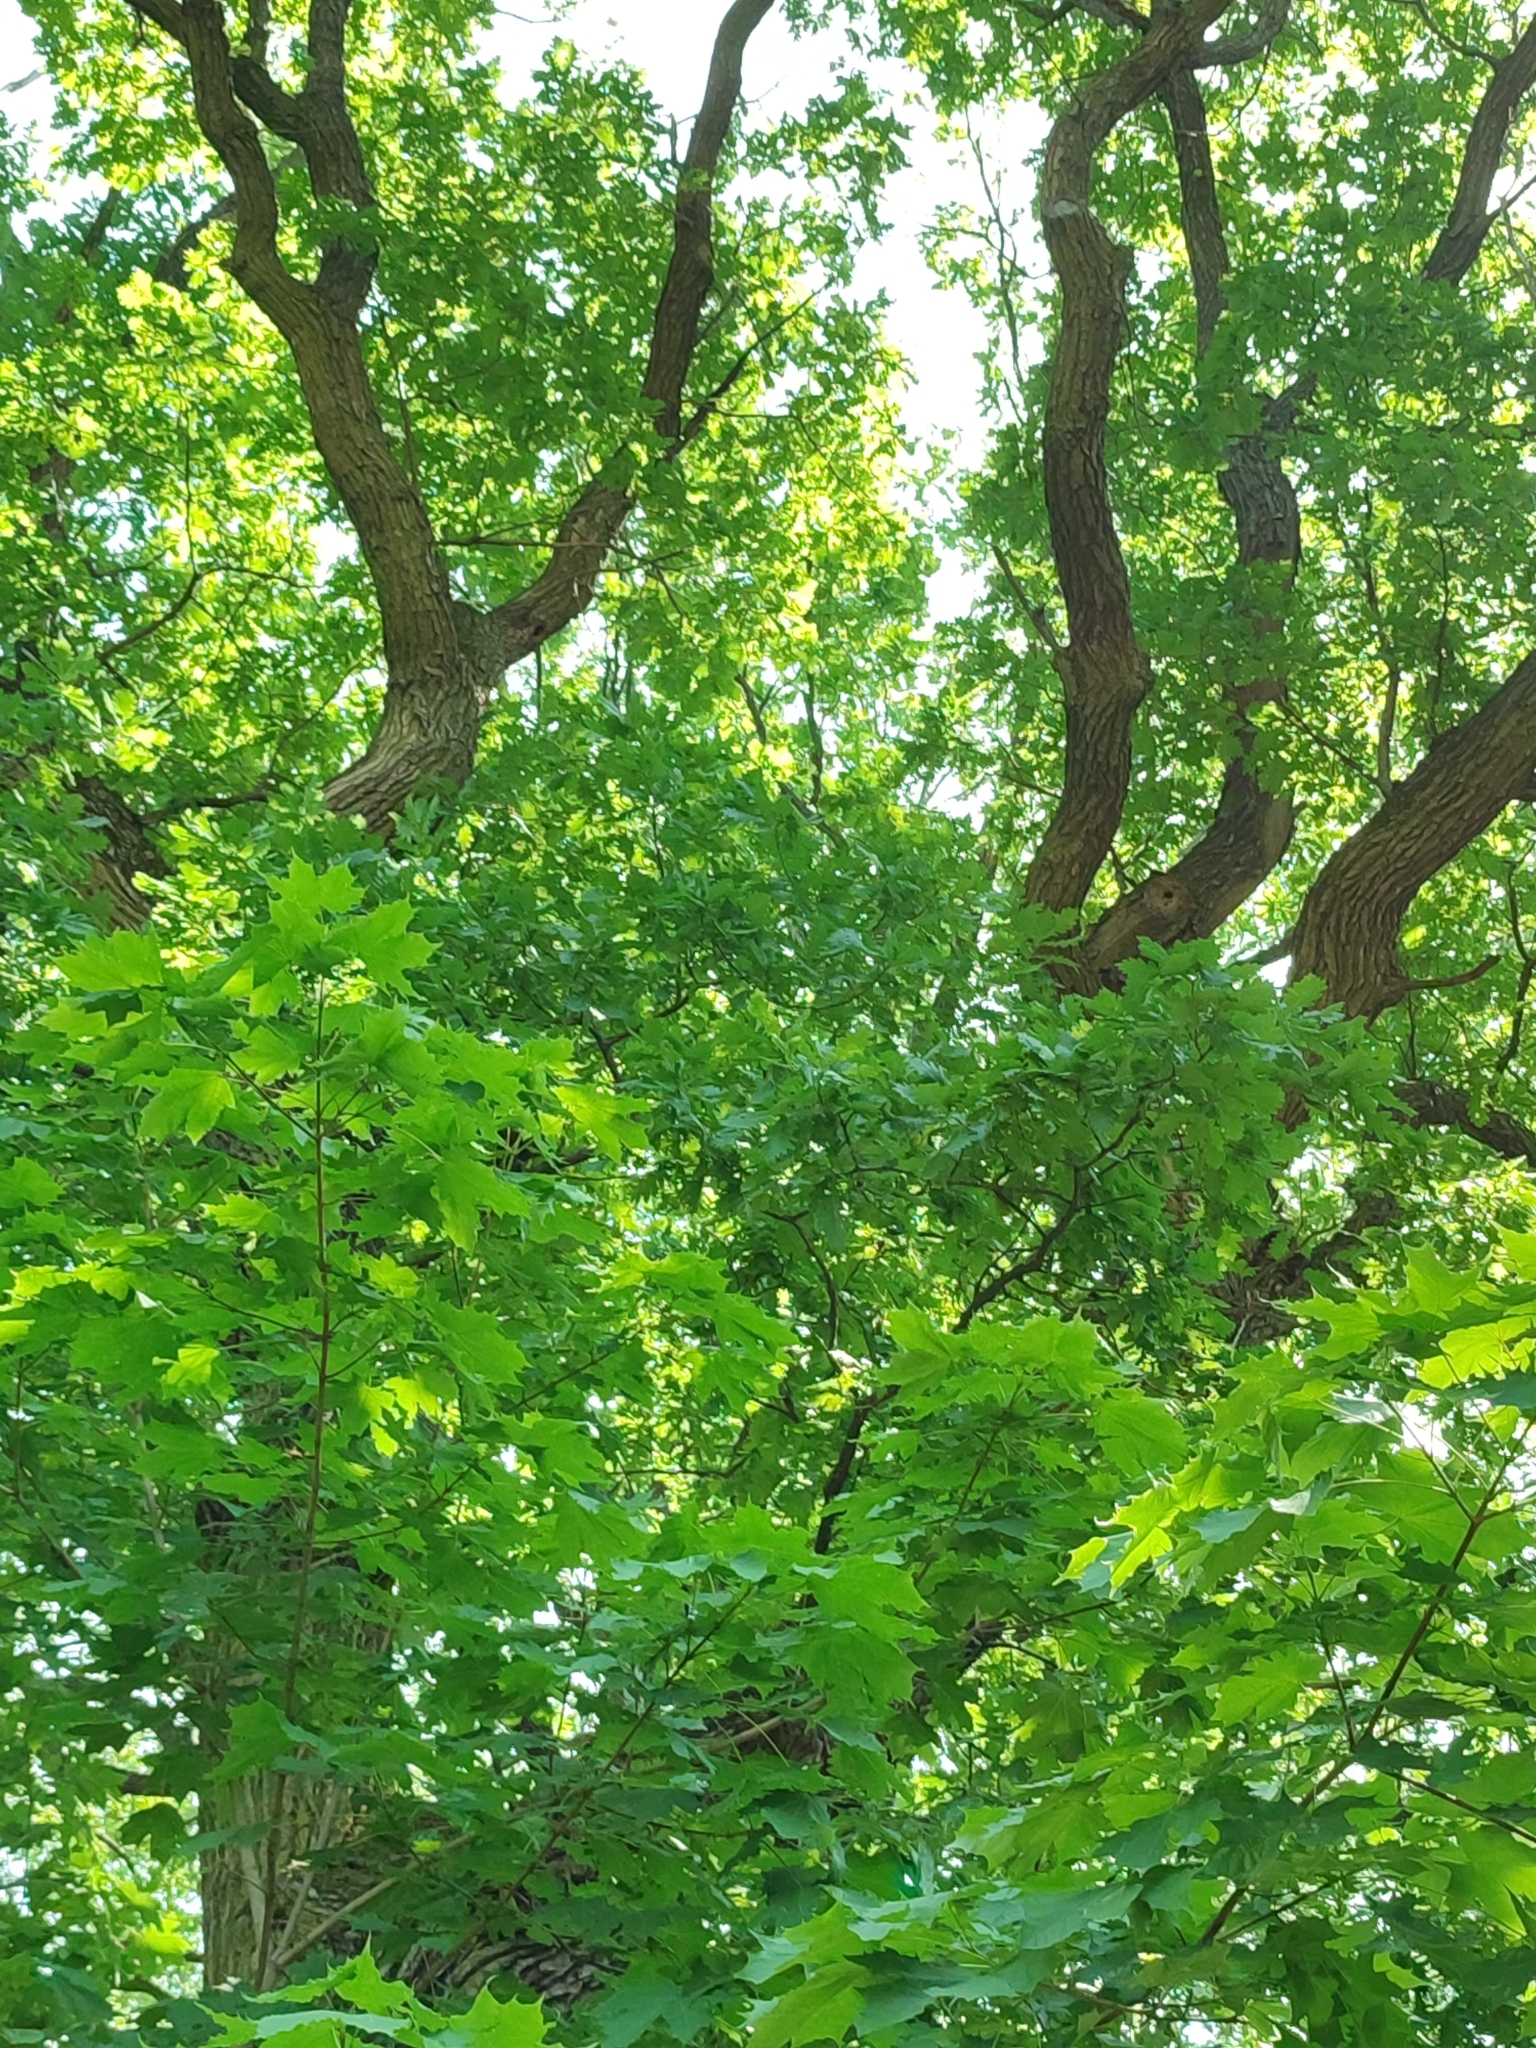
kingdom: Plantae
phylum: Tracheophyta
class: Magnoliopsida
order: Fagales
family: Fagaceae
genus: Quercus
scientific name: Quercus robur
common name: Pedunculate oak
